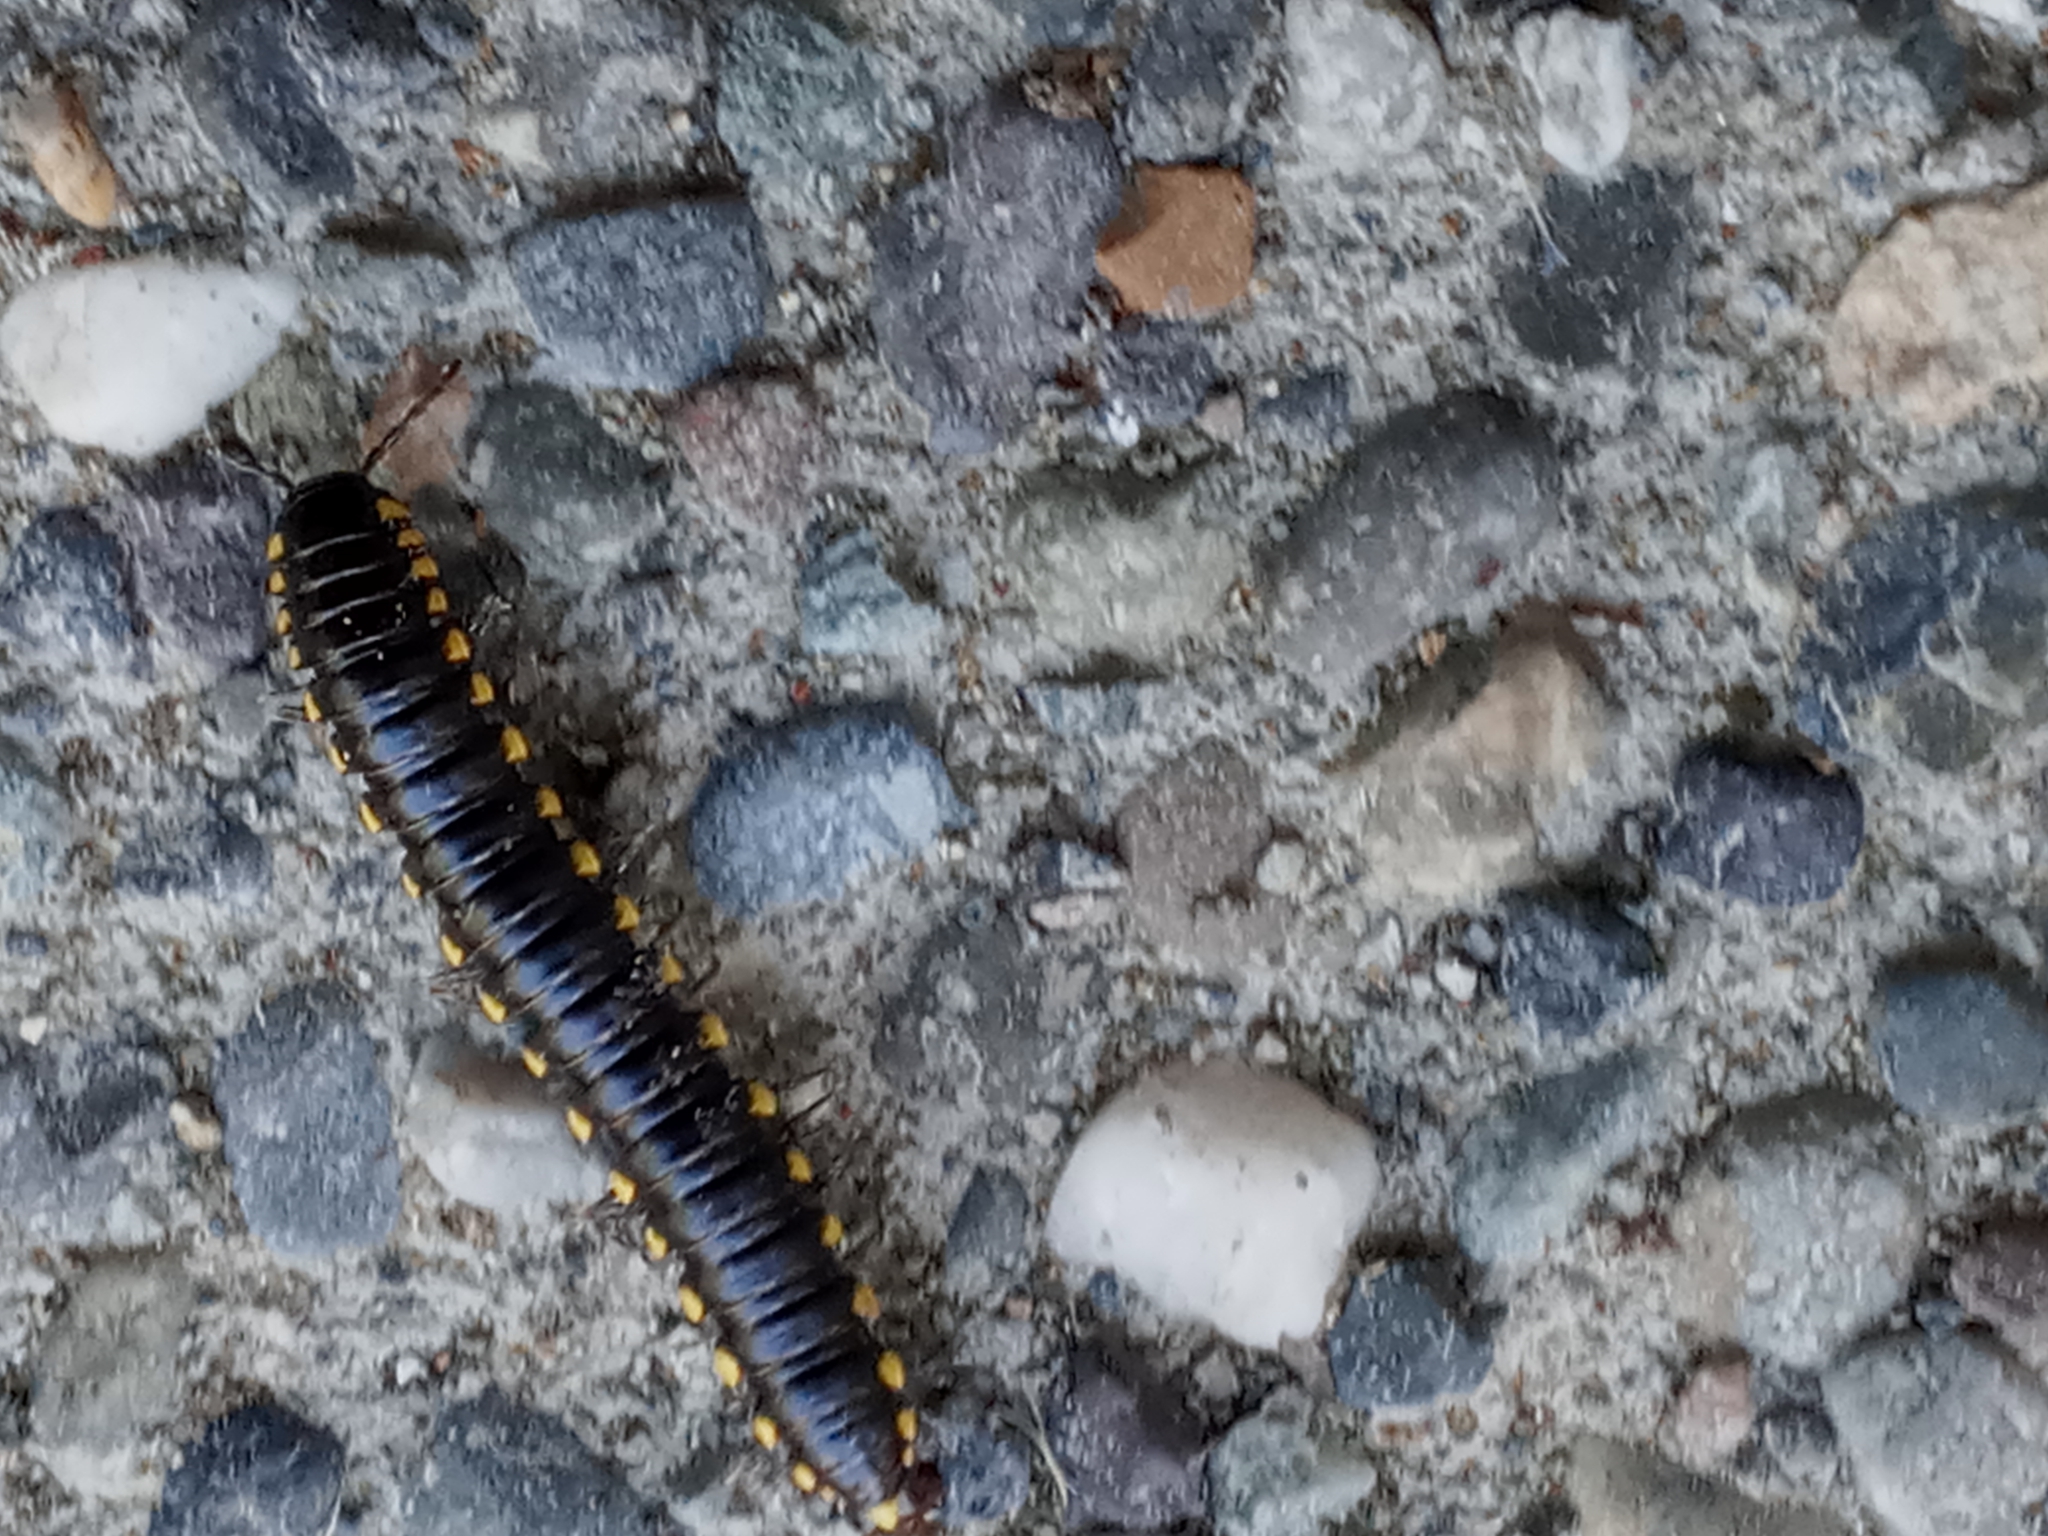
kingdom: Animalia
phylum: Arthropoda
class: Diplopoda
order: Polydesmida
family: Xystodesmidae
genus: Harpaphe
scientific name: Harpaphe haydeniana
